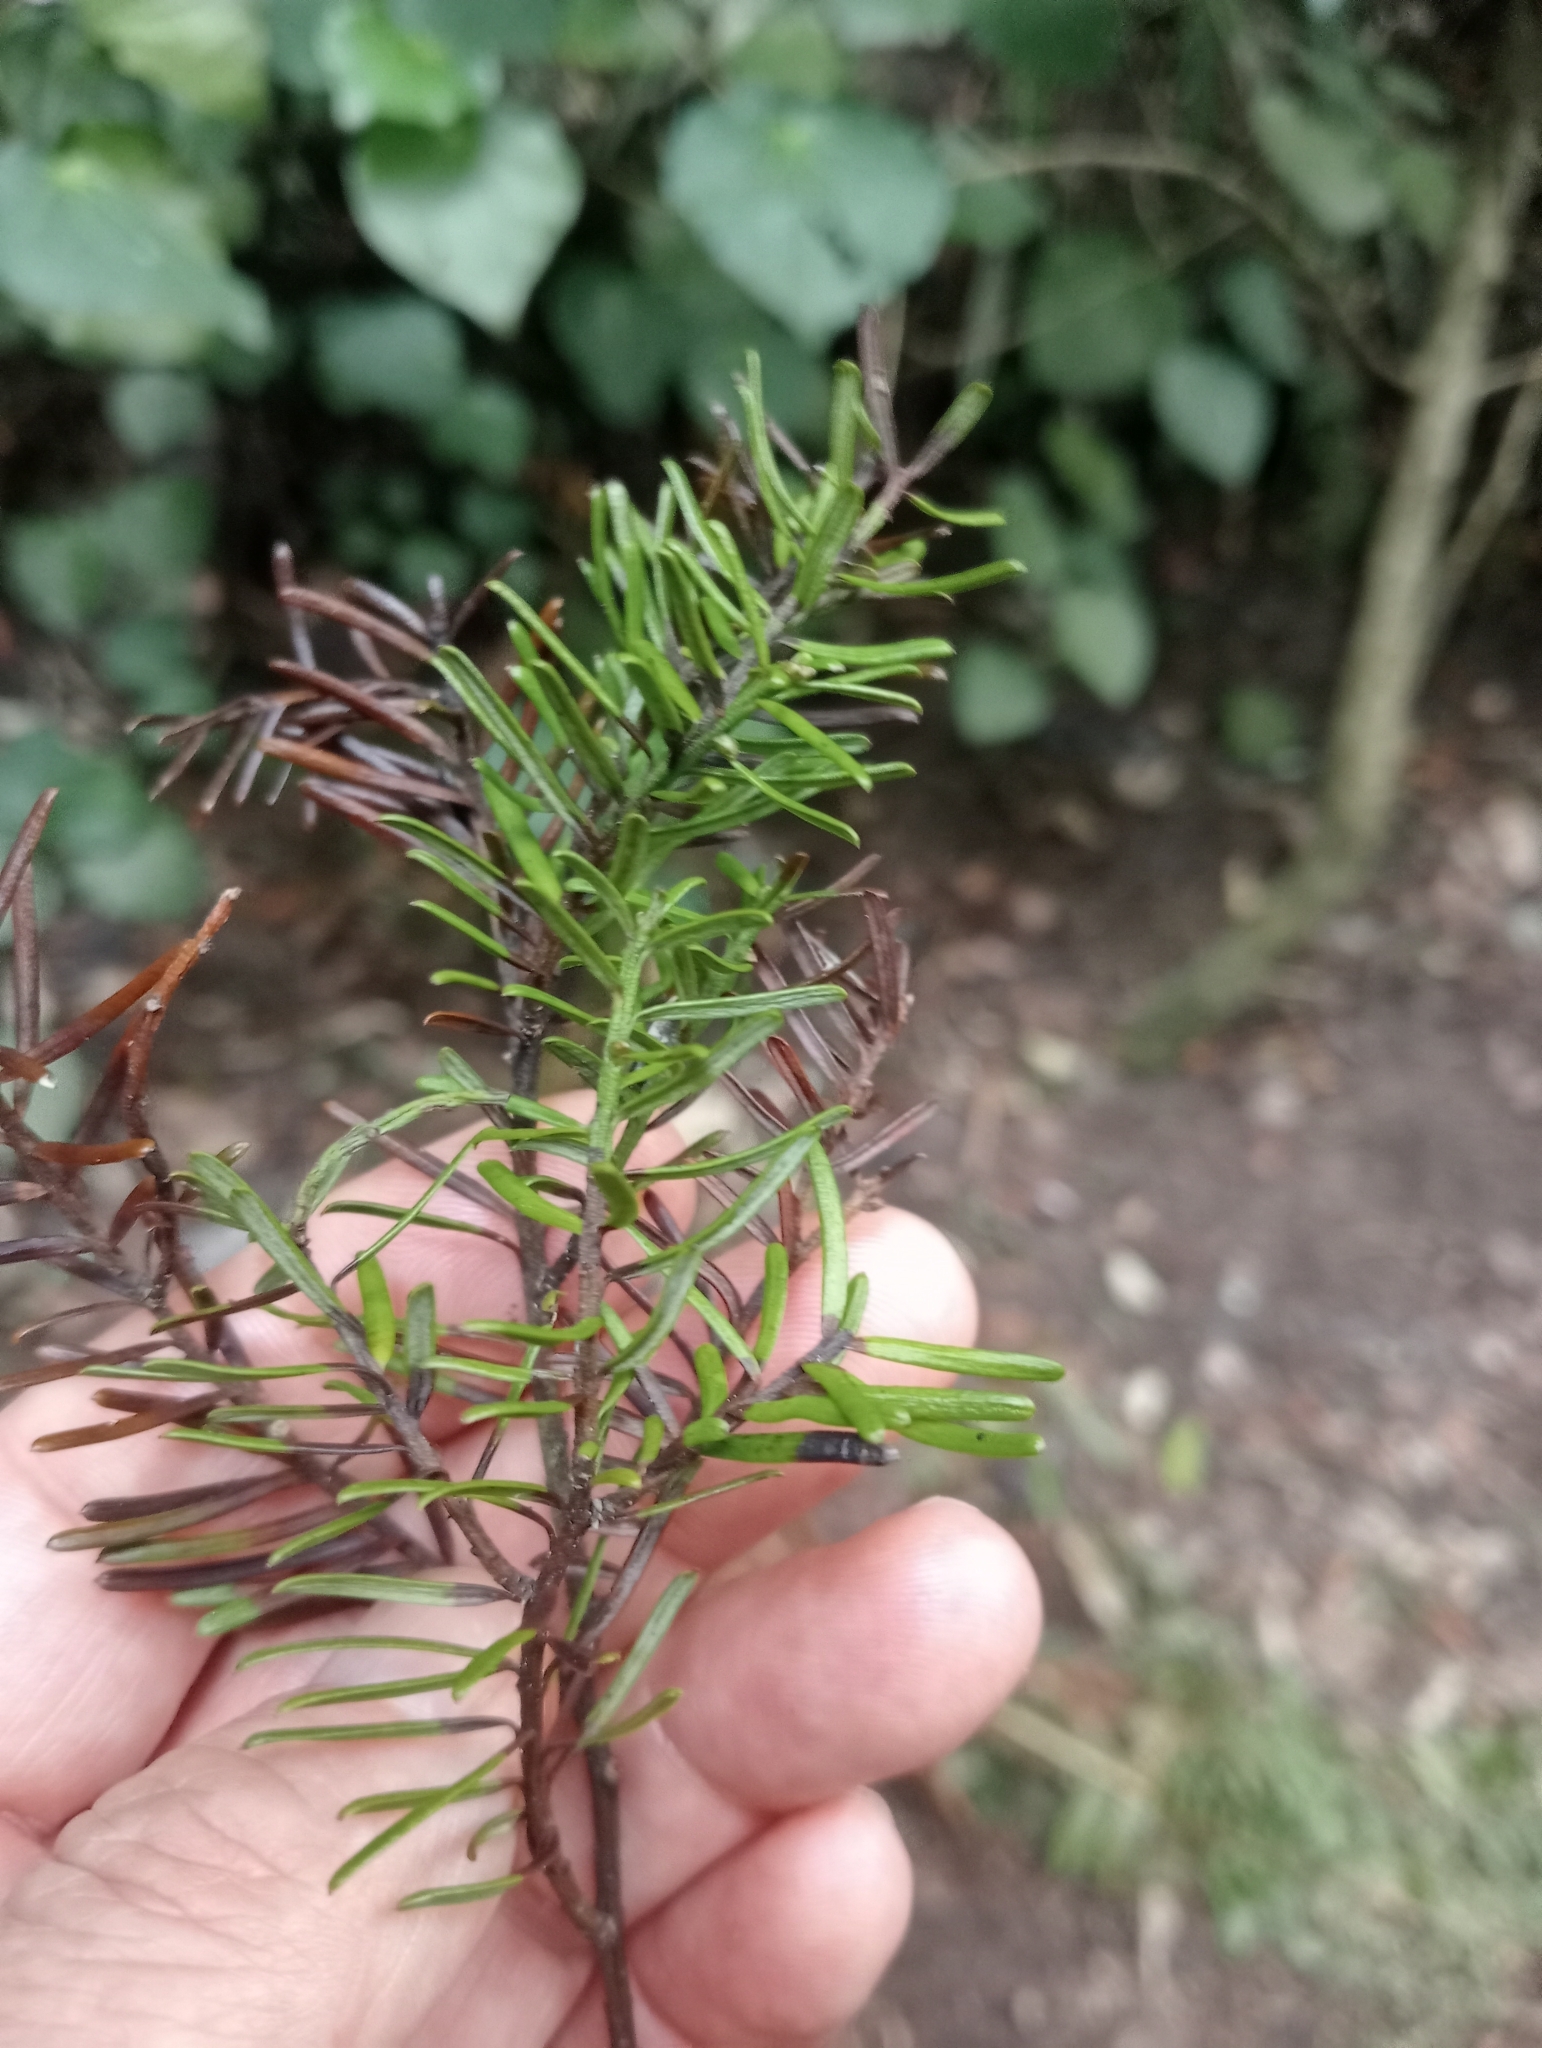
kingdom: Plantae
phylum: Tracheophyta
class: Pinopsida
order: Pinales
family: Podocarpaceae
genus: Prumnopitys
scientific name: Prumnopitys taxifolia
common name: Matai
